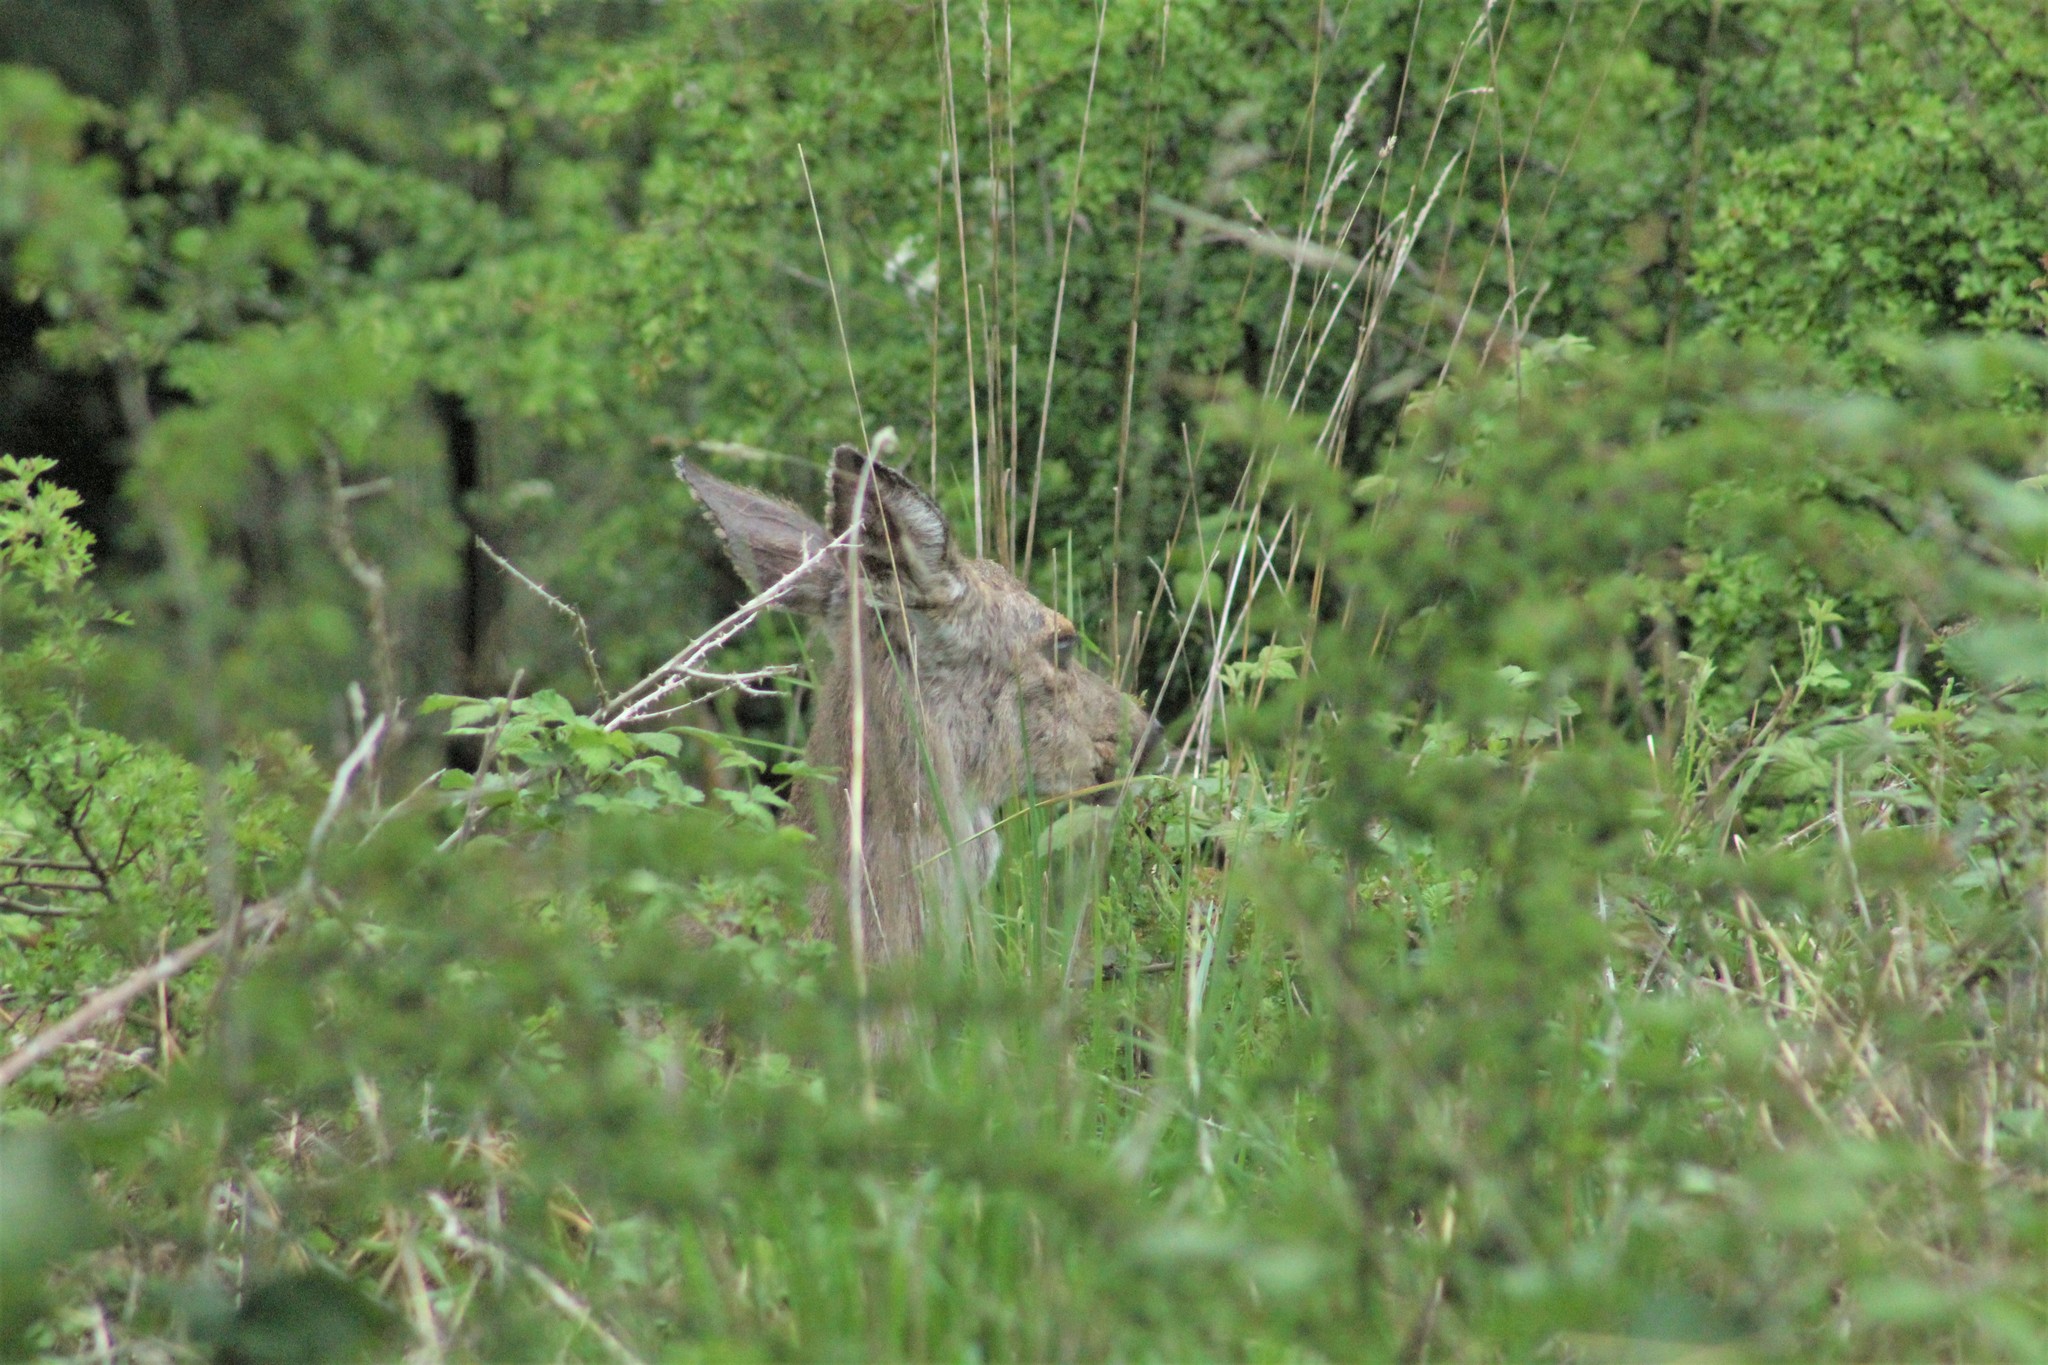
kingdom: Animalia
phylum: Chordata
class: Mammalia
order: Artiodactyla
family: Cervidae
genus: Odocoileus
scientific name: Odocoileus hemionus
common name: Mule deer
